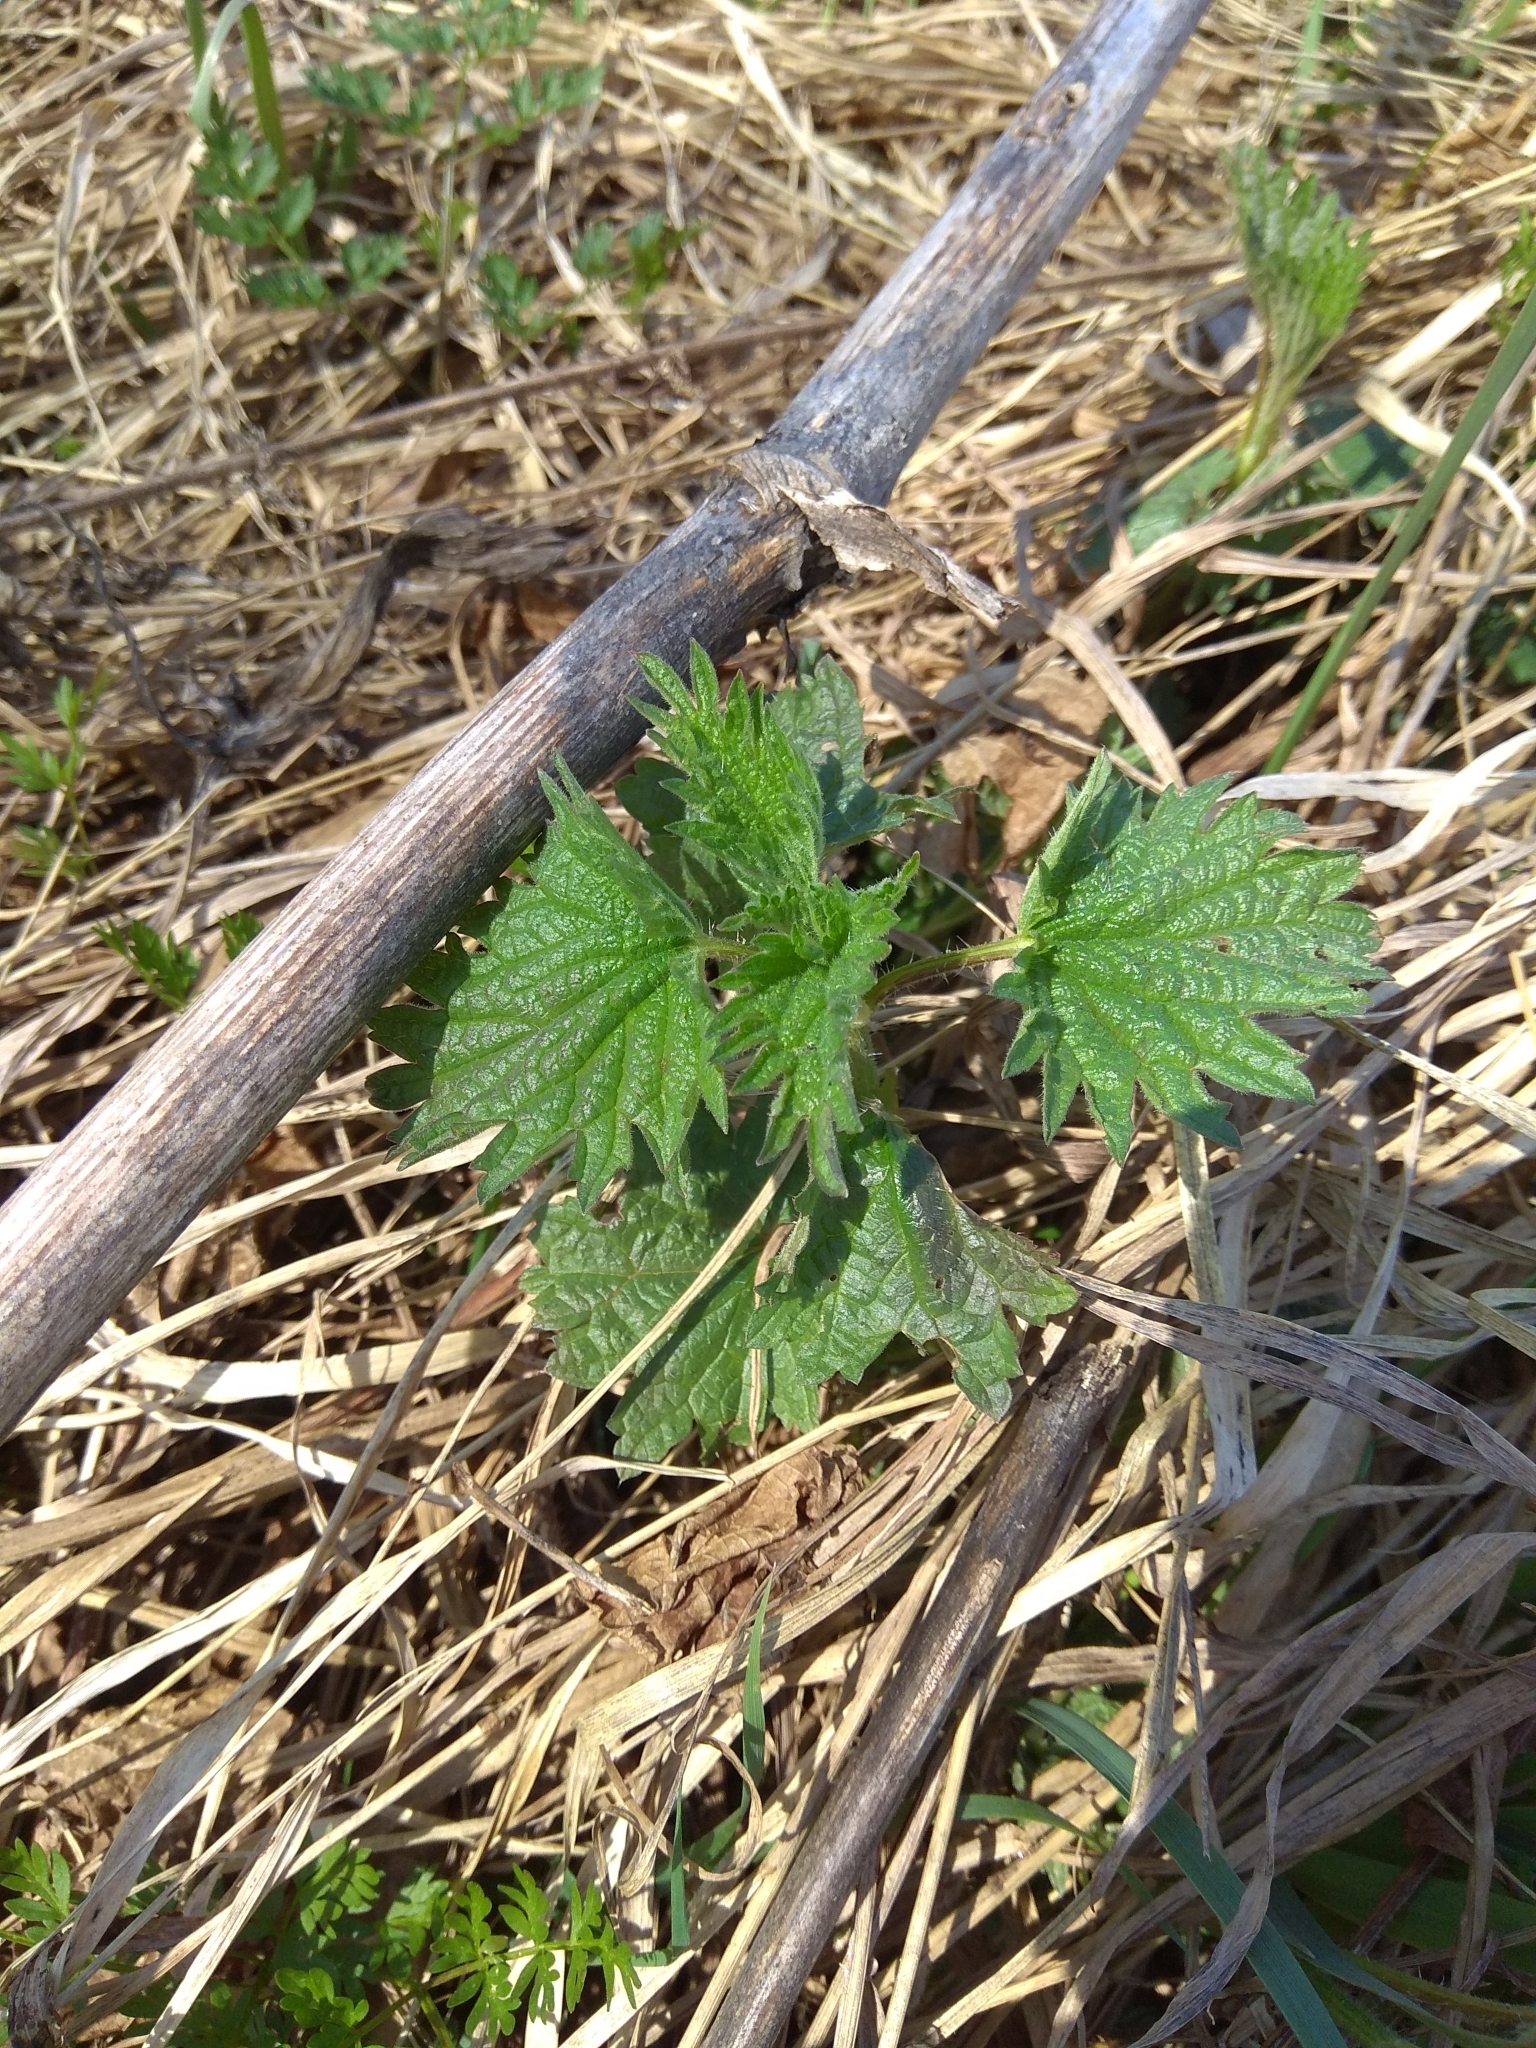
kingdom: Plantae
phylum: Tracheophyta
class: Magnoliopsida
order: Rosales
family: Urticaceae
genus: Urtica
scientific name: Urtica dioica
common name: Common nettle
